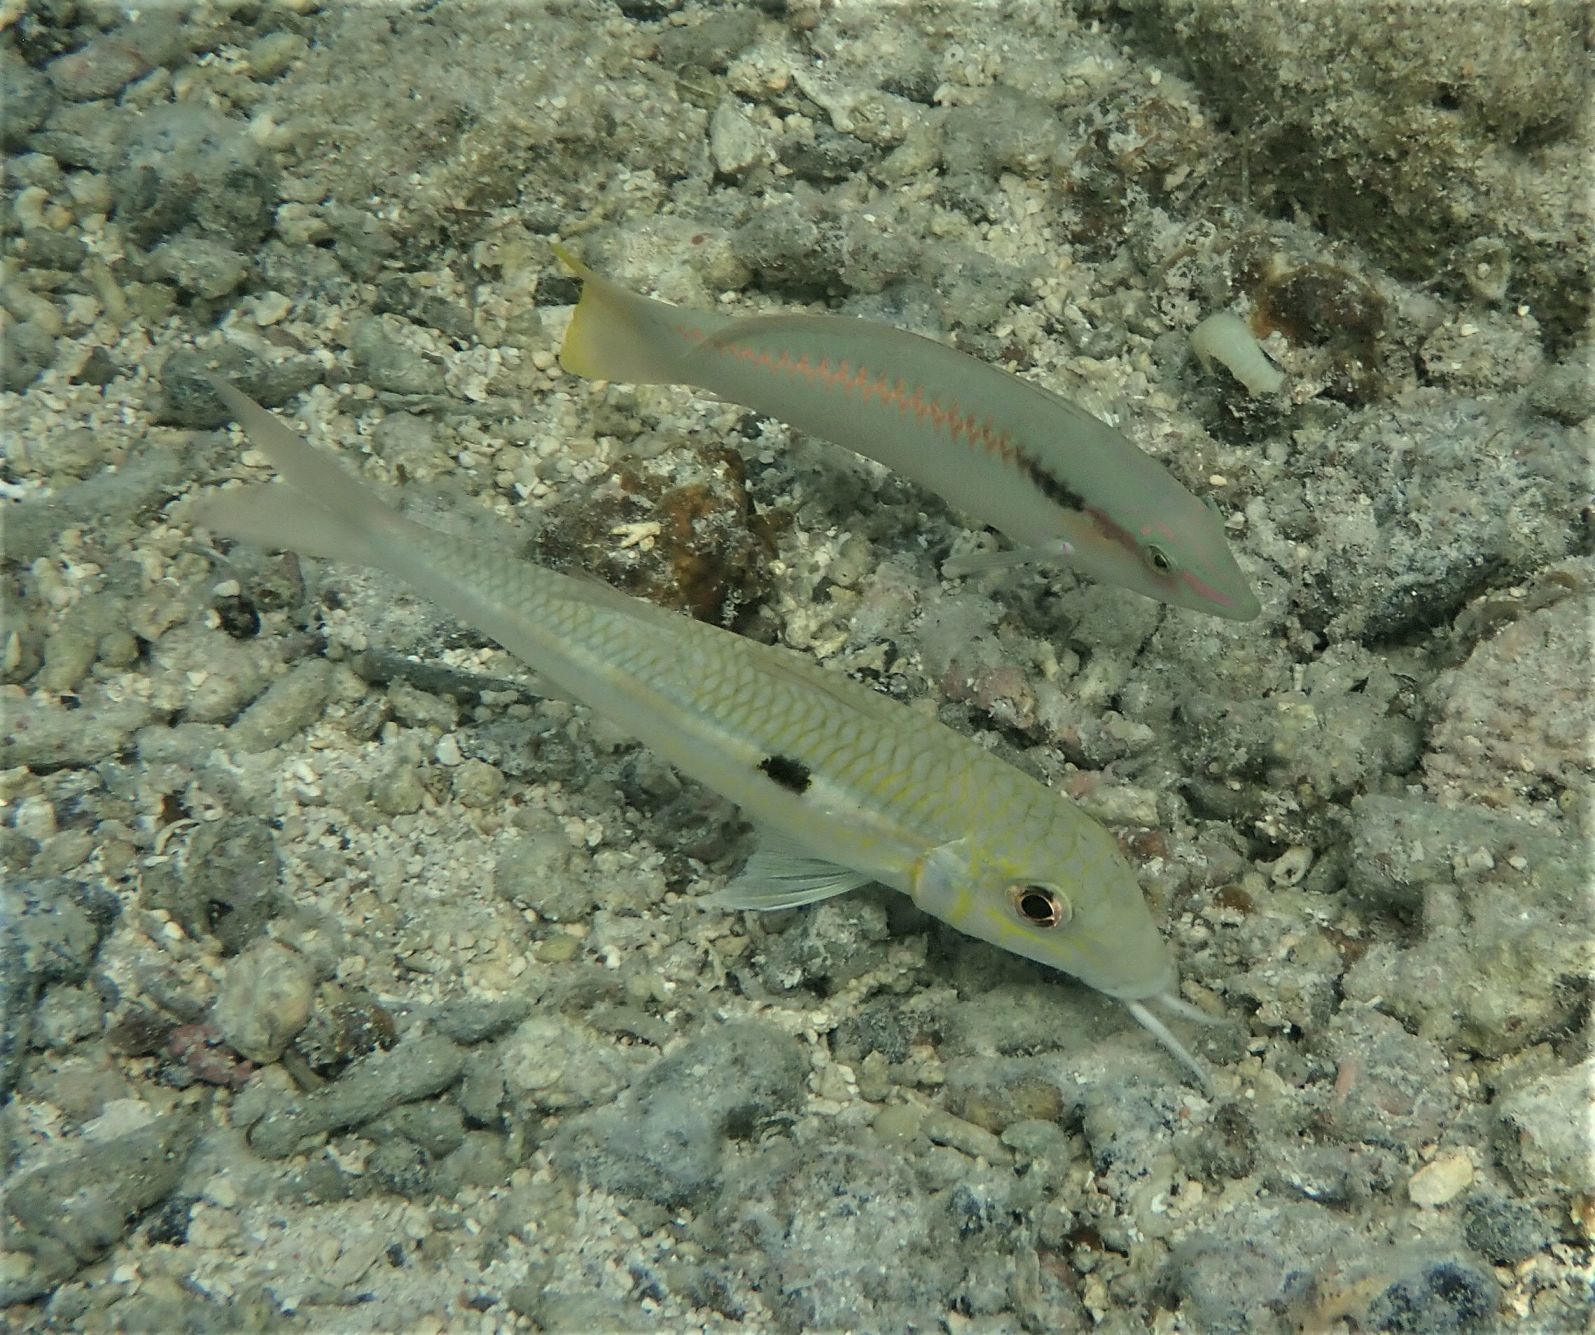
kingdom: Animalia
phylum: Chordata
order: Perciformes
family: Mullidae
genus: Mulloidichthys
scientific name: Mulloidichthys flavolineatus
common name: Yellowstripe goatfish
